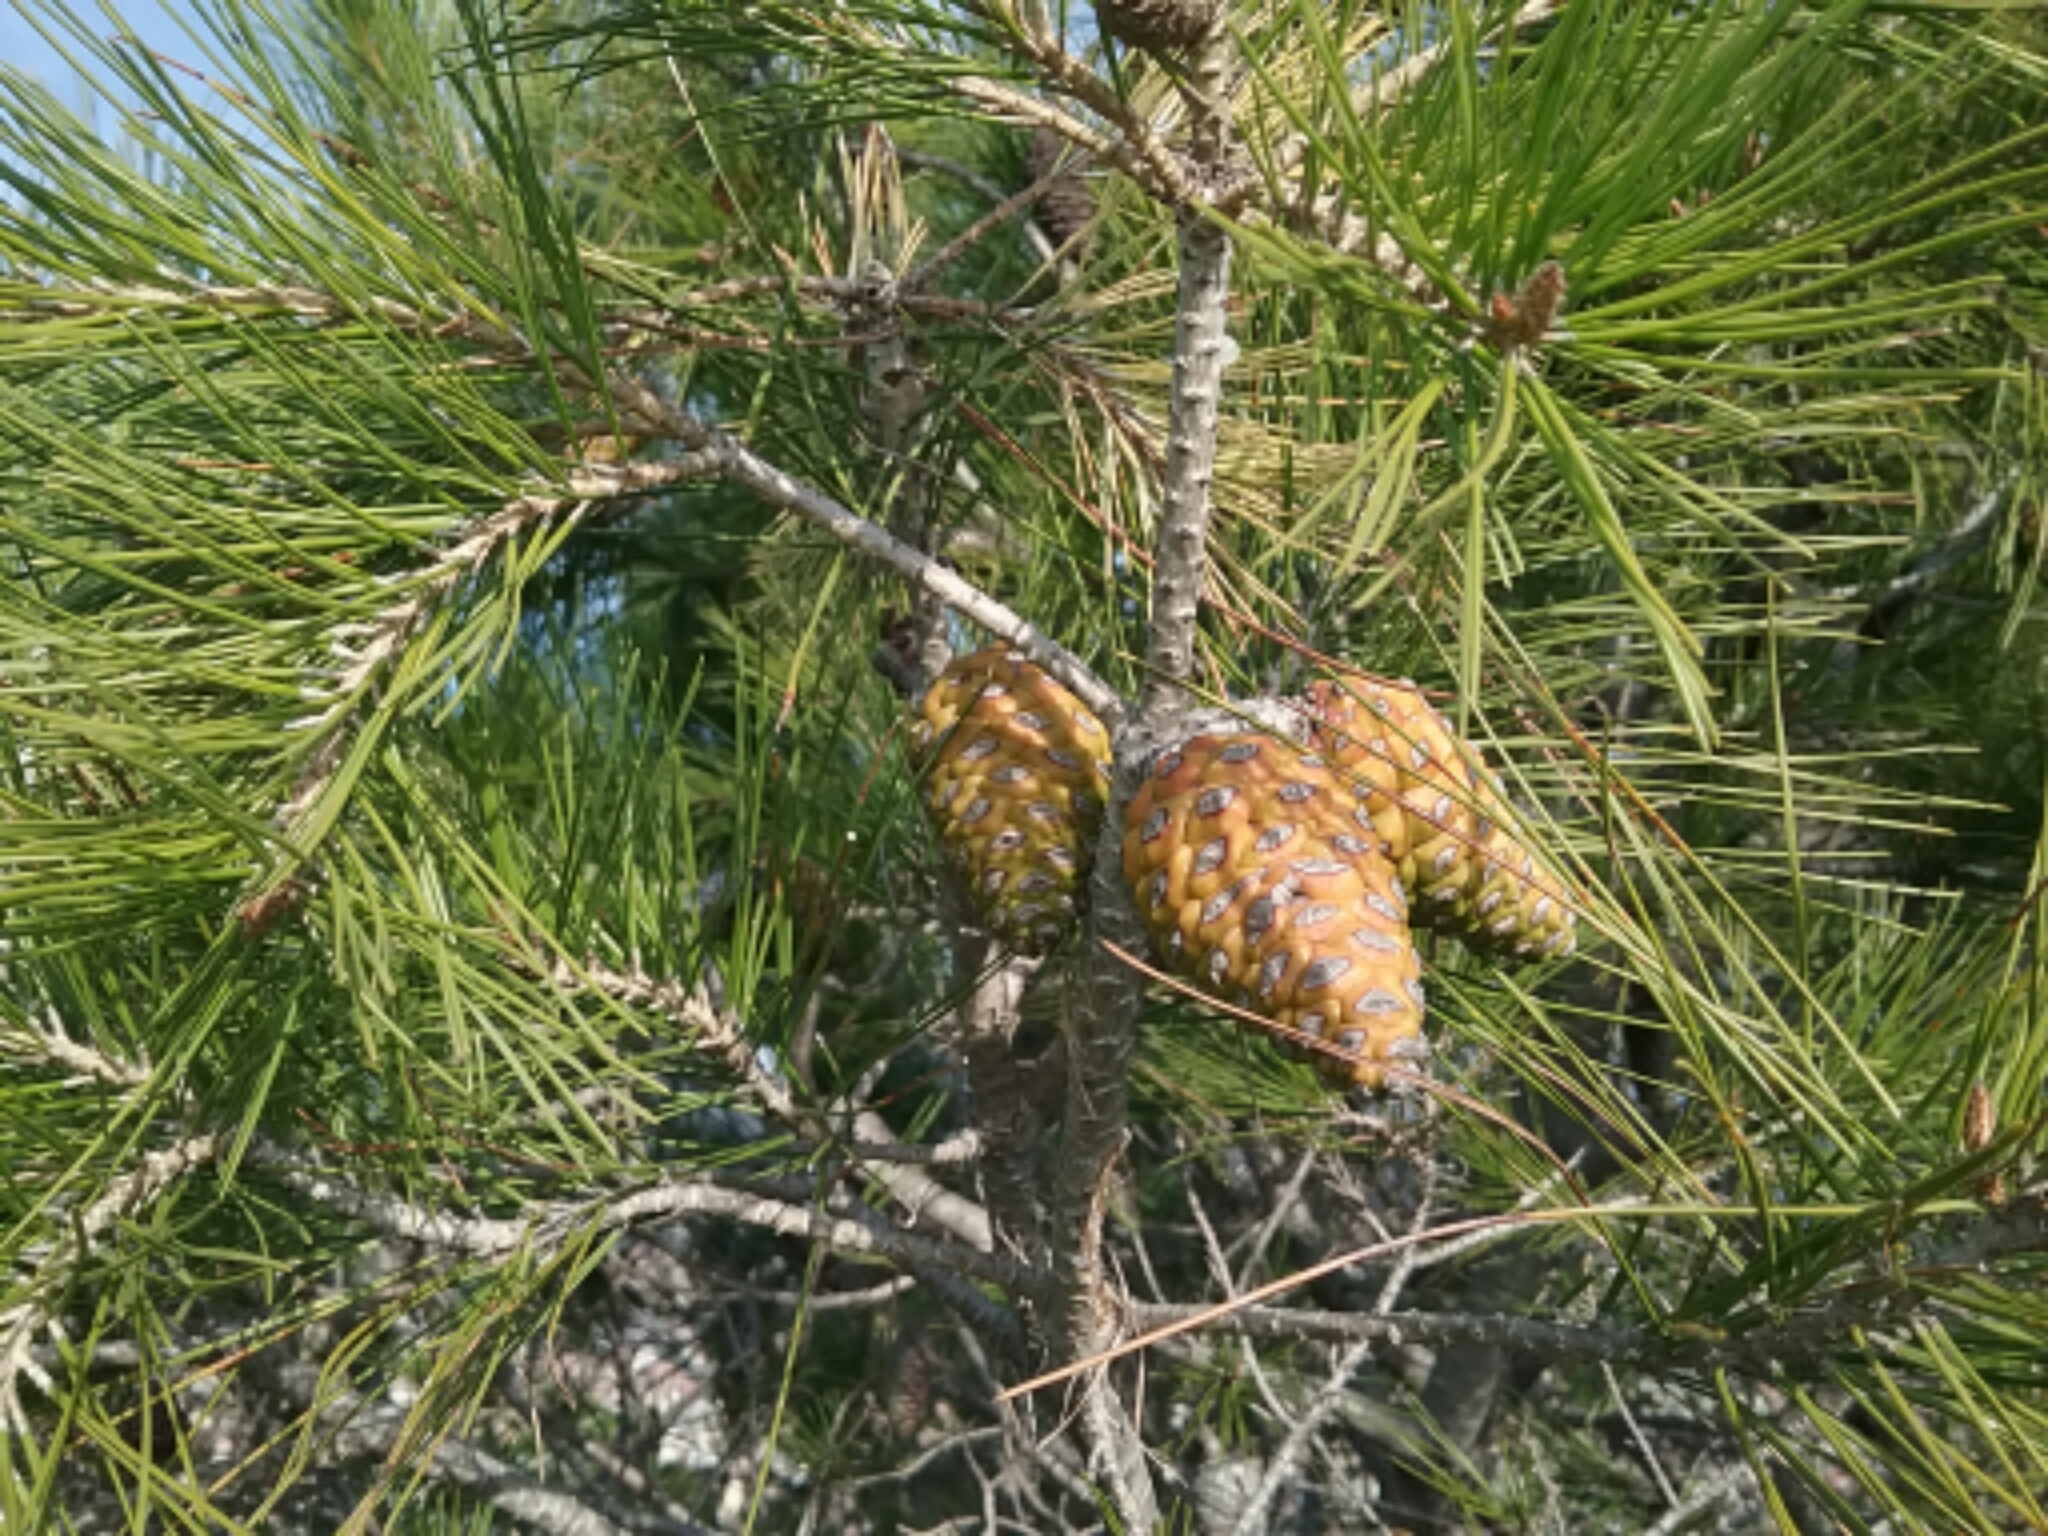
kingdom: Plantae
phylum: Tracheophyta
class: Pinopsida
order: Pinales
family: Pinaceae
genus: Pinus
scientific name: Pinus halepensis
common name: Aleppo pine
